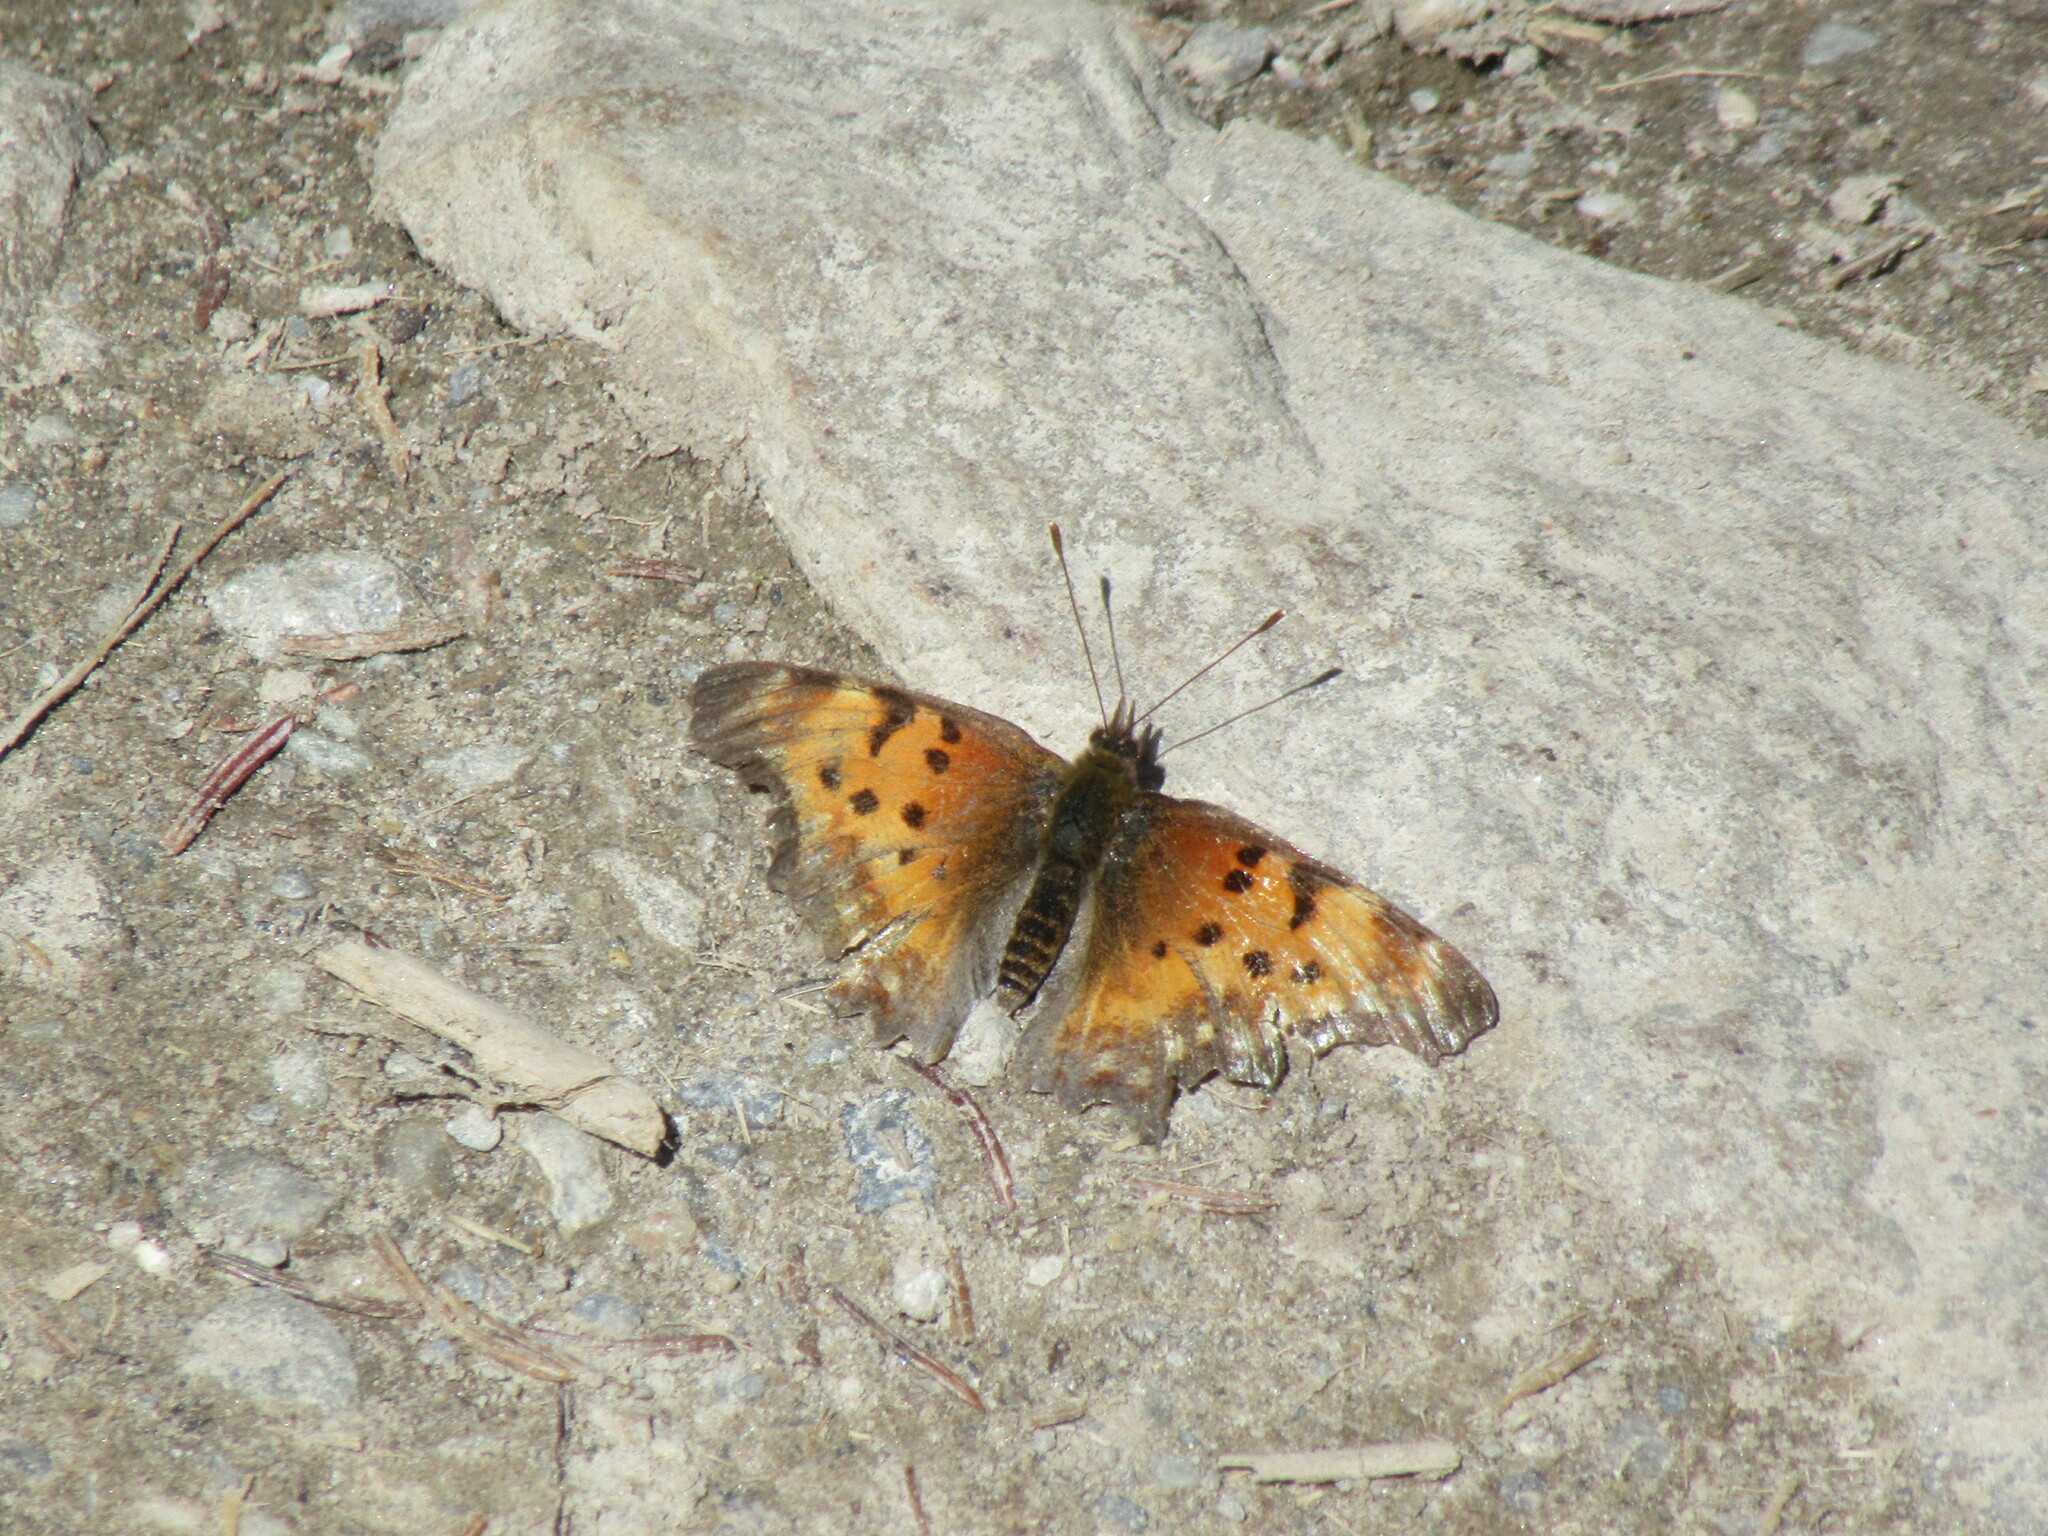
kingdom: Animalia
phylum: Arthropoda
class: Insecta
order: Lepidoptera
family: Nymphalidae
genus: Polygonia
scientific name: Polygonia gracilis
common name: Hoary comma
